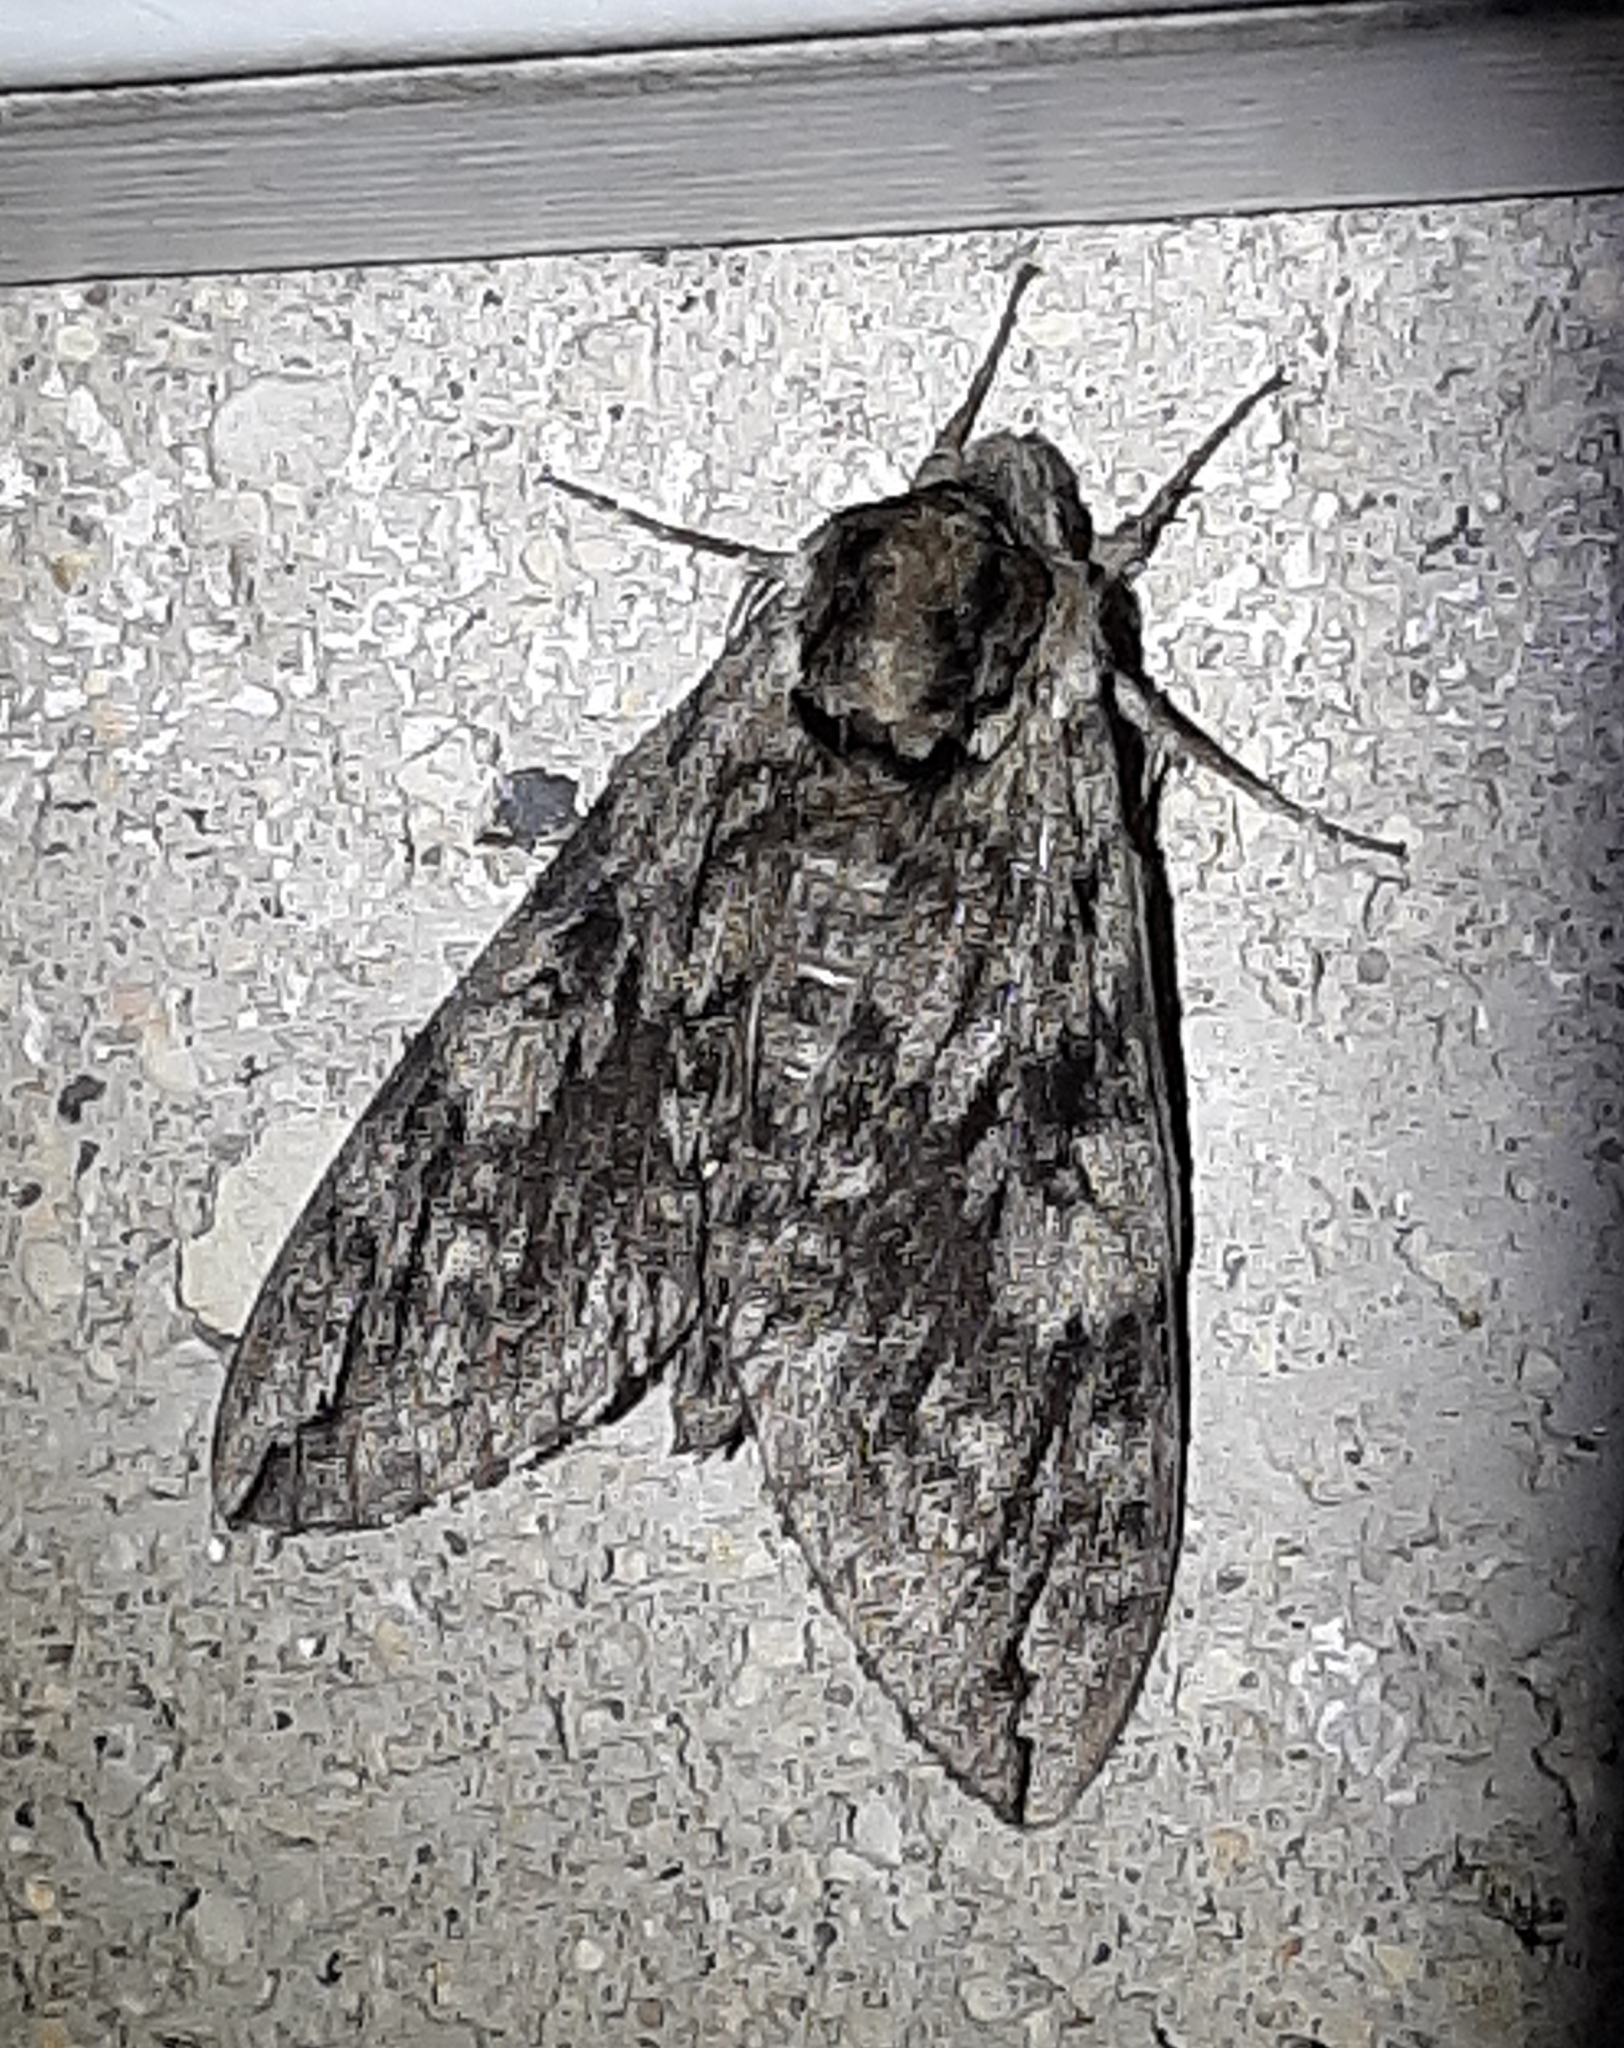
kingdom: Animalia
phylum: Arthropoda
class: Insecta
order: Lepidoptera
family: Sphingidae
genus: Ceratomia
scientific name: Ceratomia undulosa
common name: Waved sphinx
